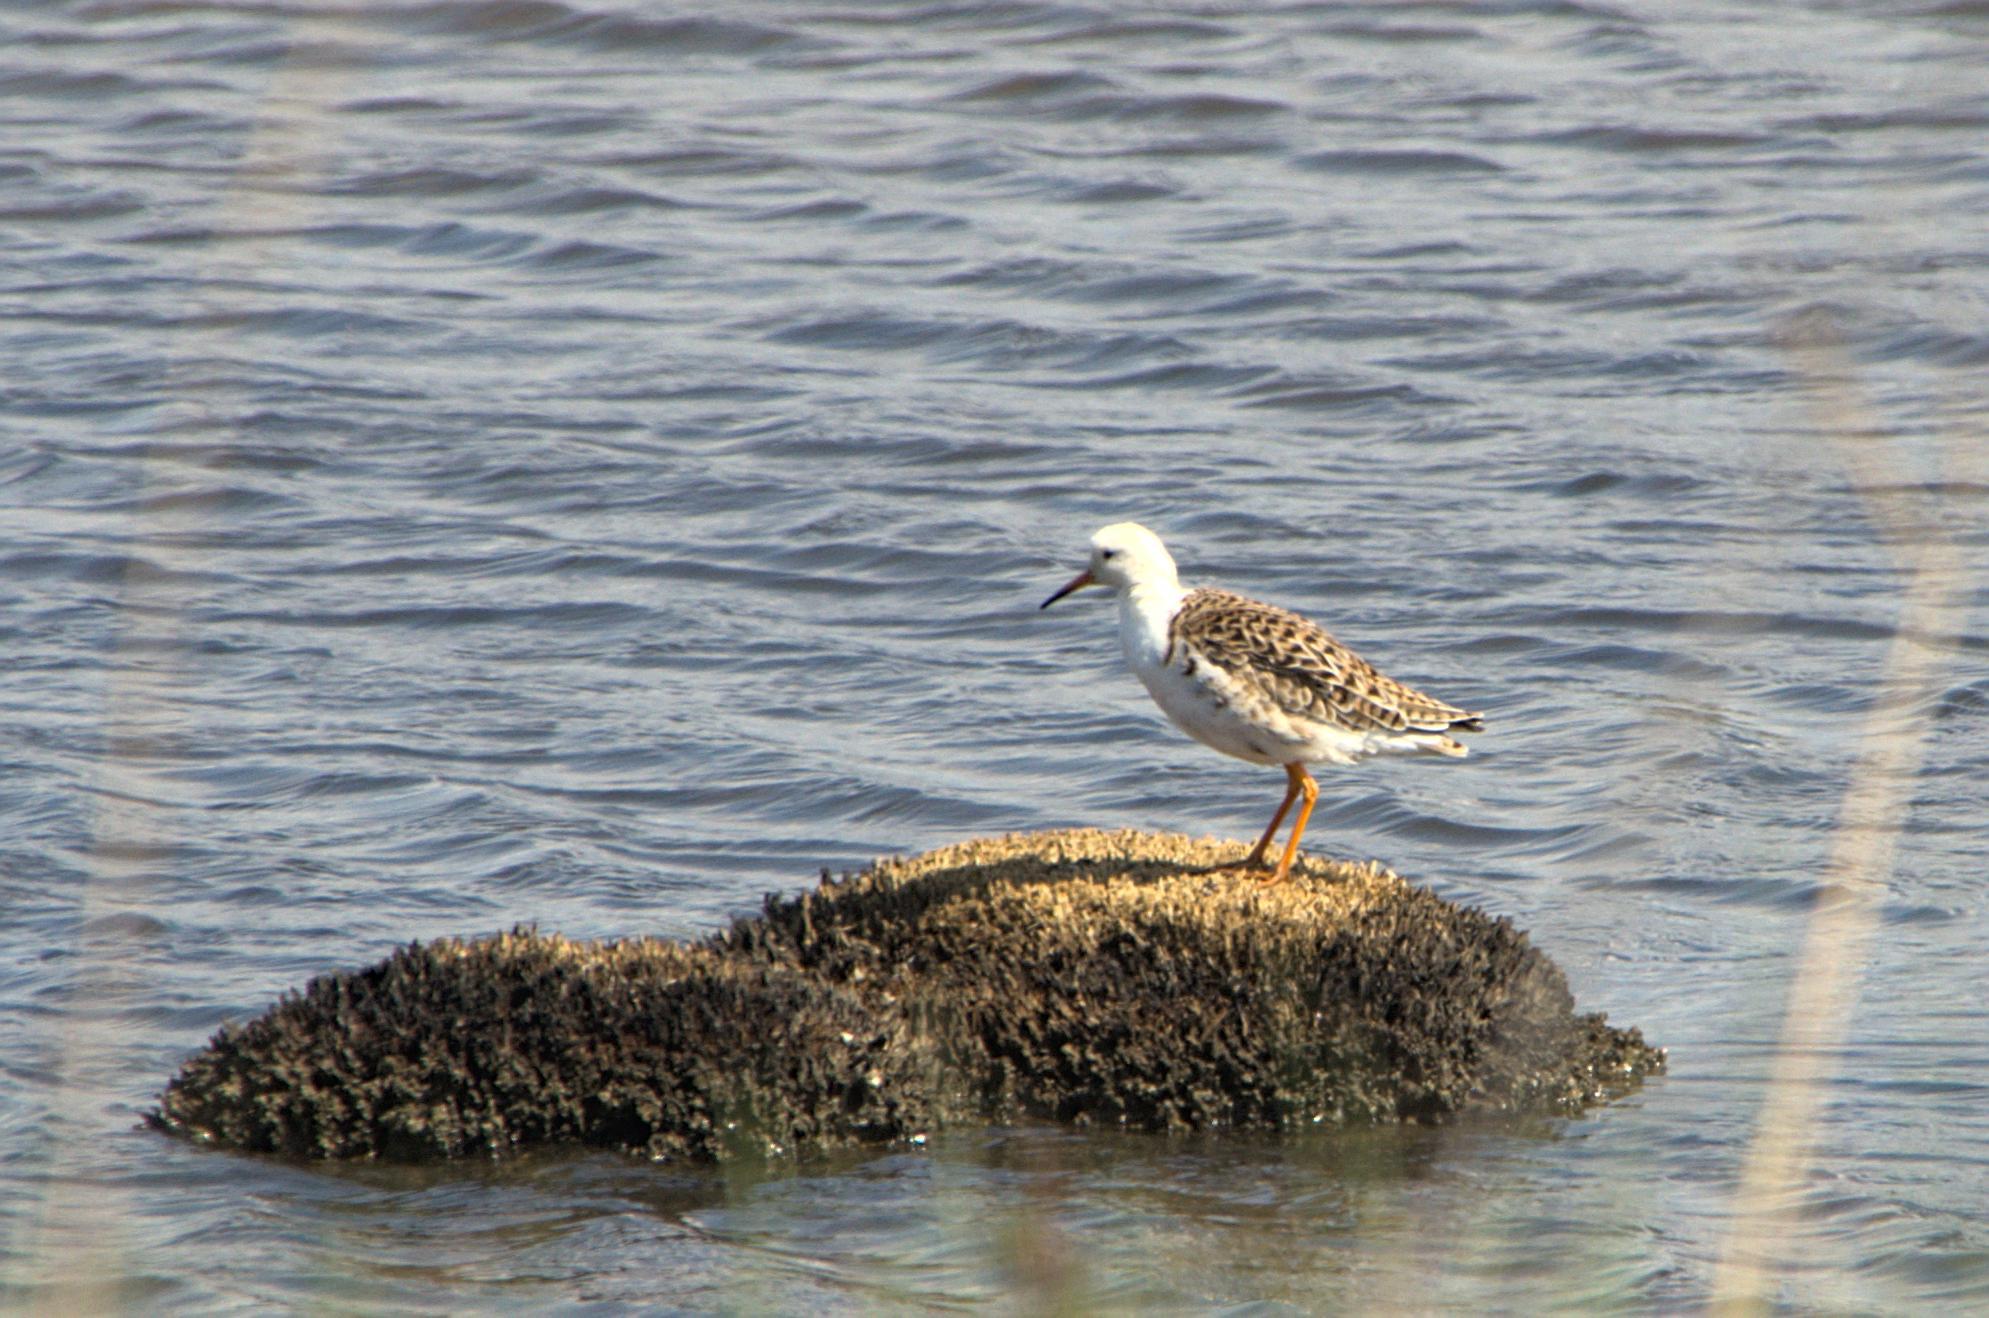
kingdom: Animalia
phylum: Chordata
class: Aves
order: Charadriiformes
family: Scolopacidae
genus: Calidris
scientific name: Calidris pugnax
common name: Ruff
